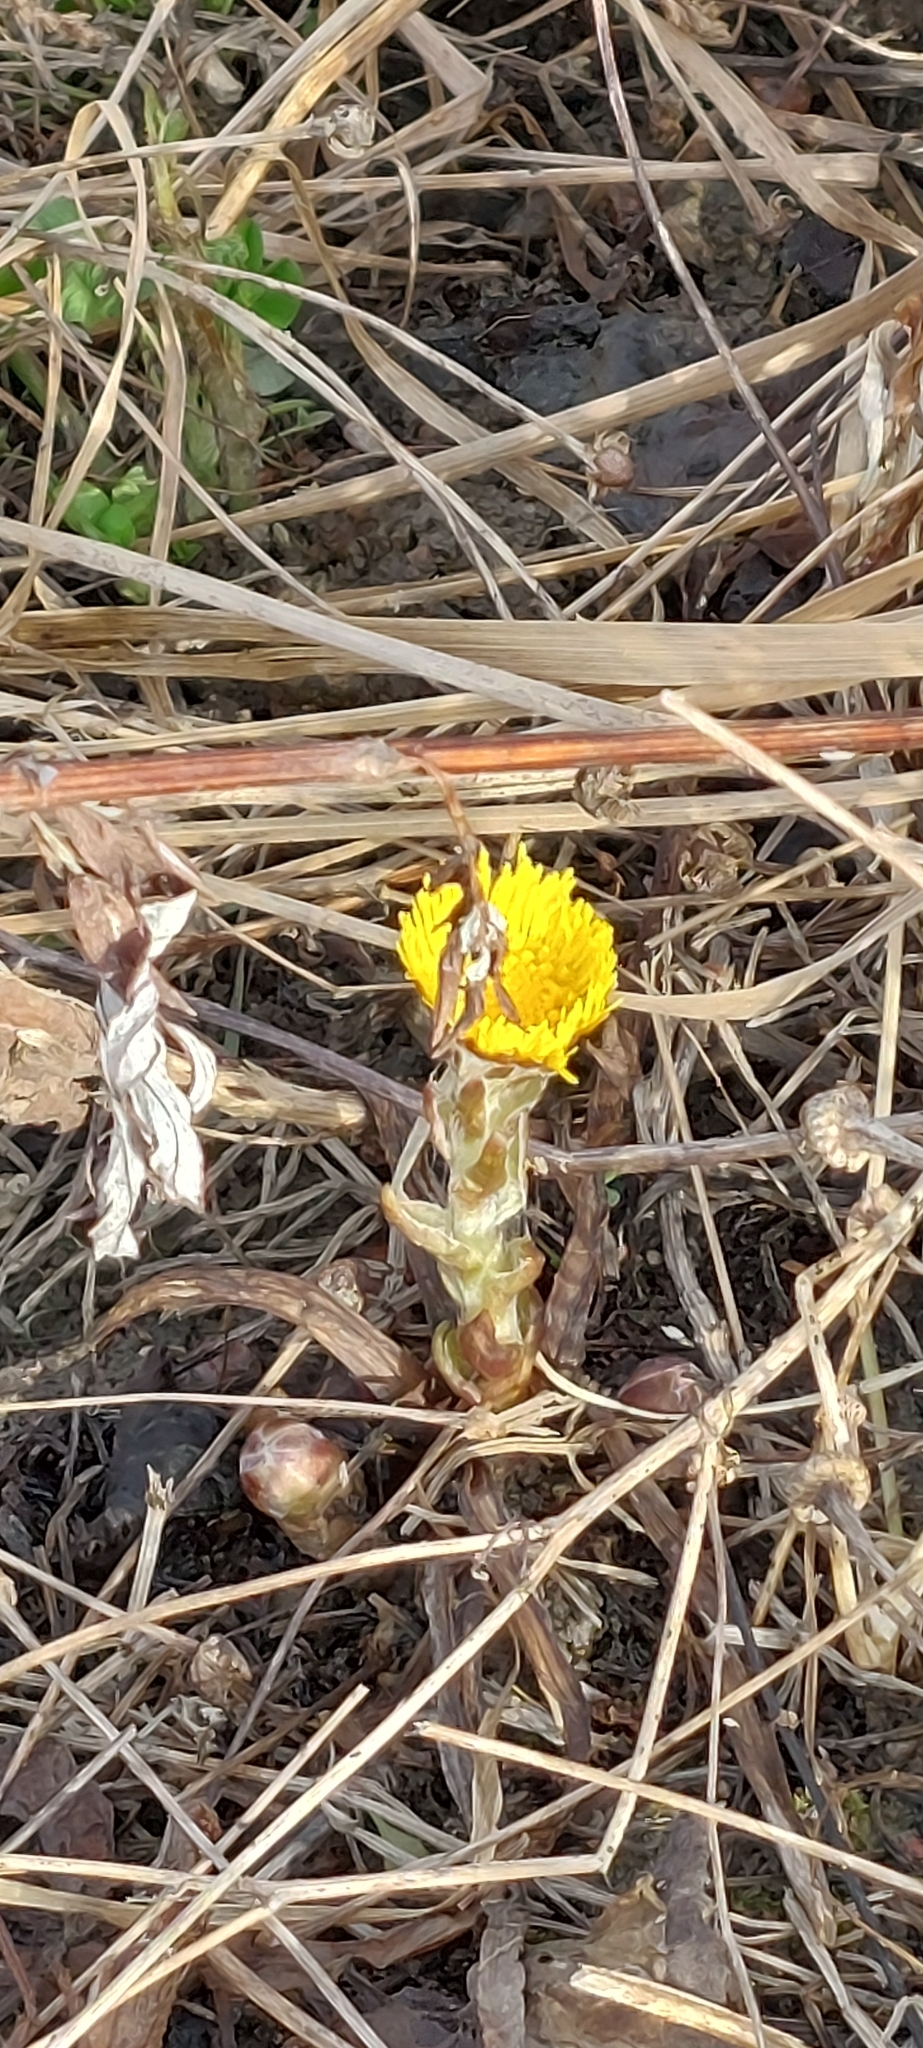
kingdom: Plantae
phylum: Tracheophyta
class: Magnoliopsida
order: Asterales
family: Asteraceae
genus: Tussilago
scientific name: Tussilago farfara
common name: Coltsfoot
